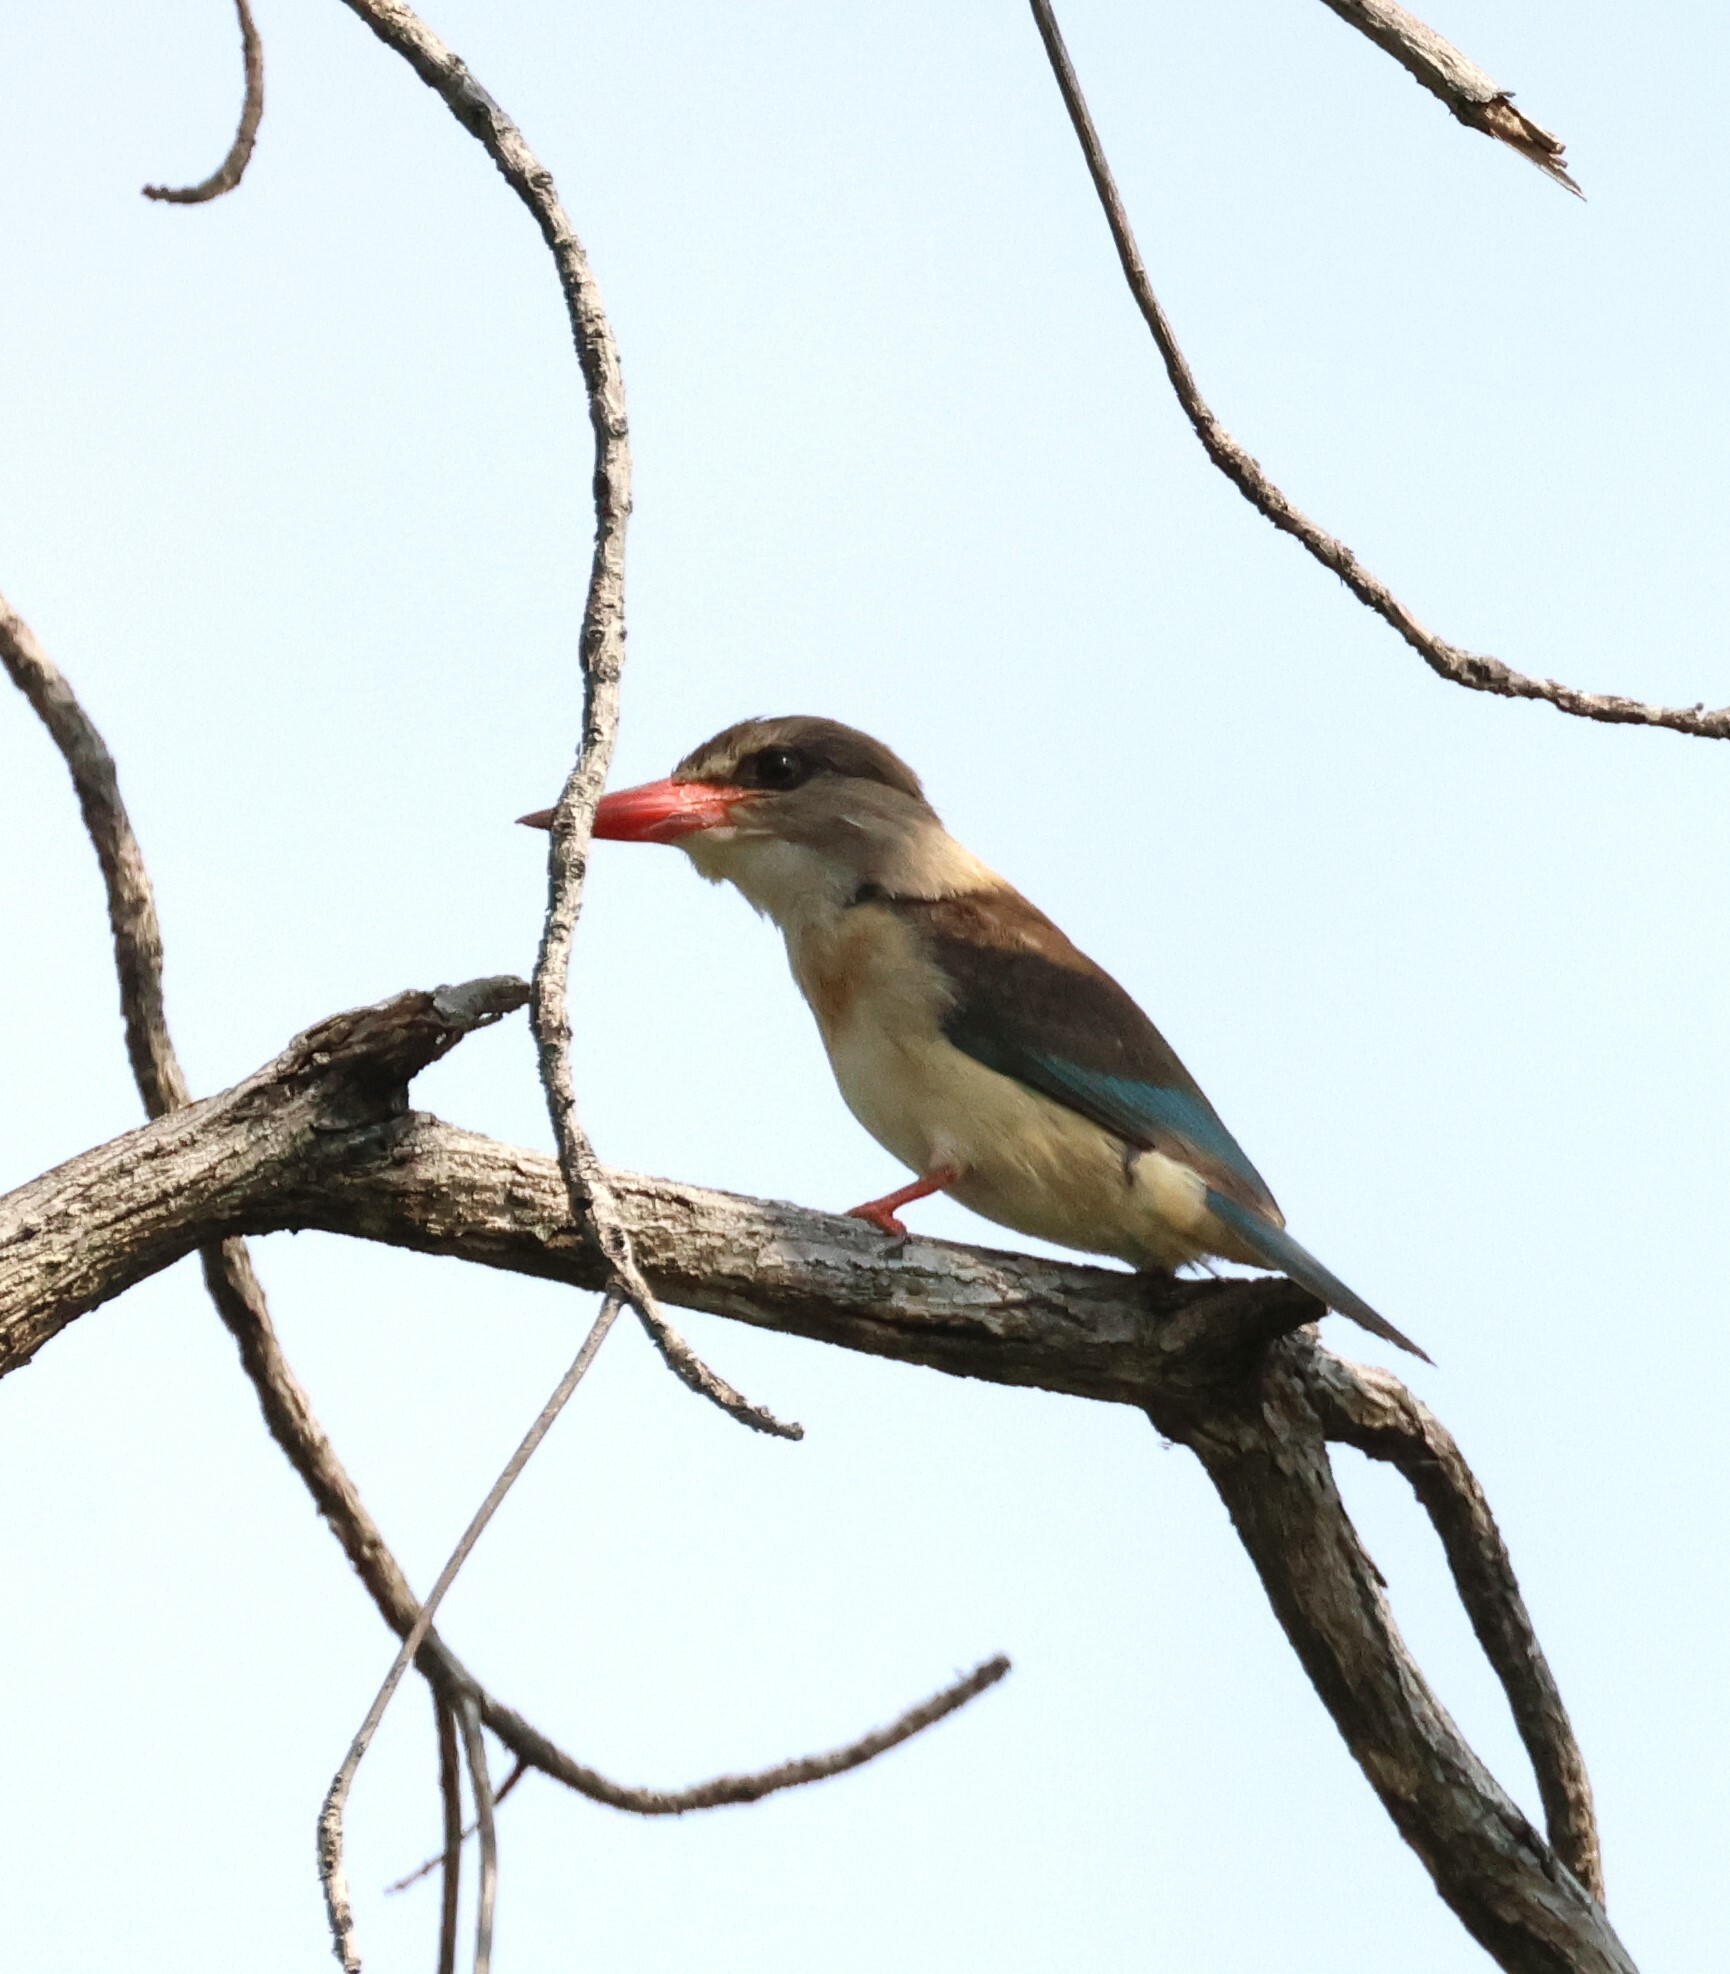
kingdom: Animalia
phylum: Chordata
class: Aves
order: Coraciiformes
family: Alcedinidae
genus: Halcyon
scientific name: Halcyon albiventris
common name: Brown-hooded kingfisher
